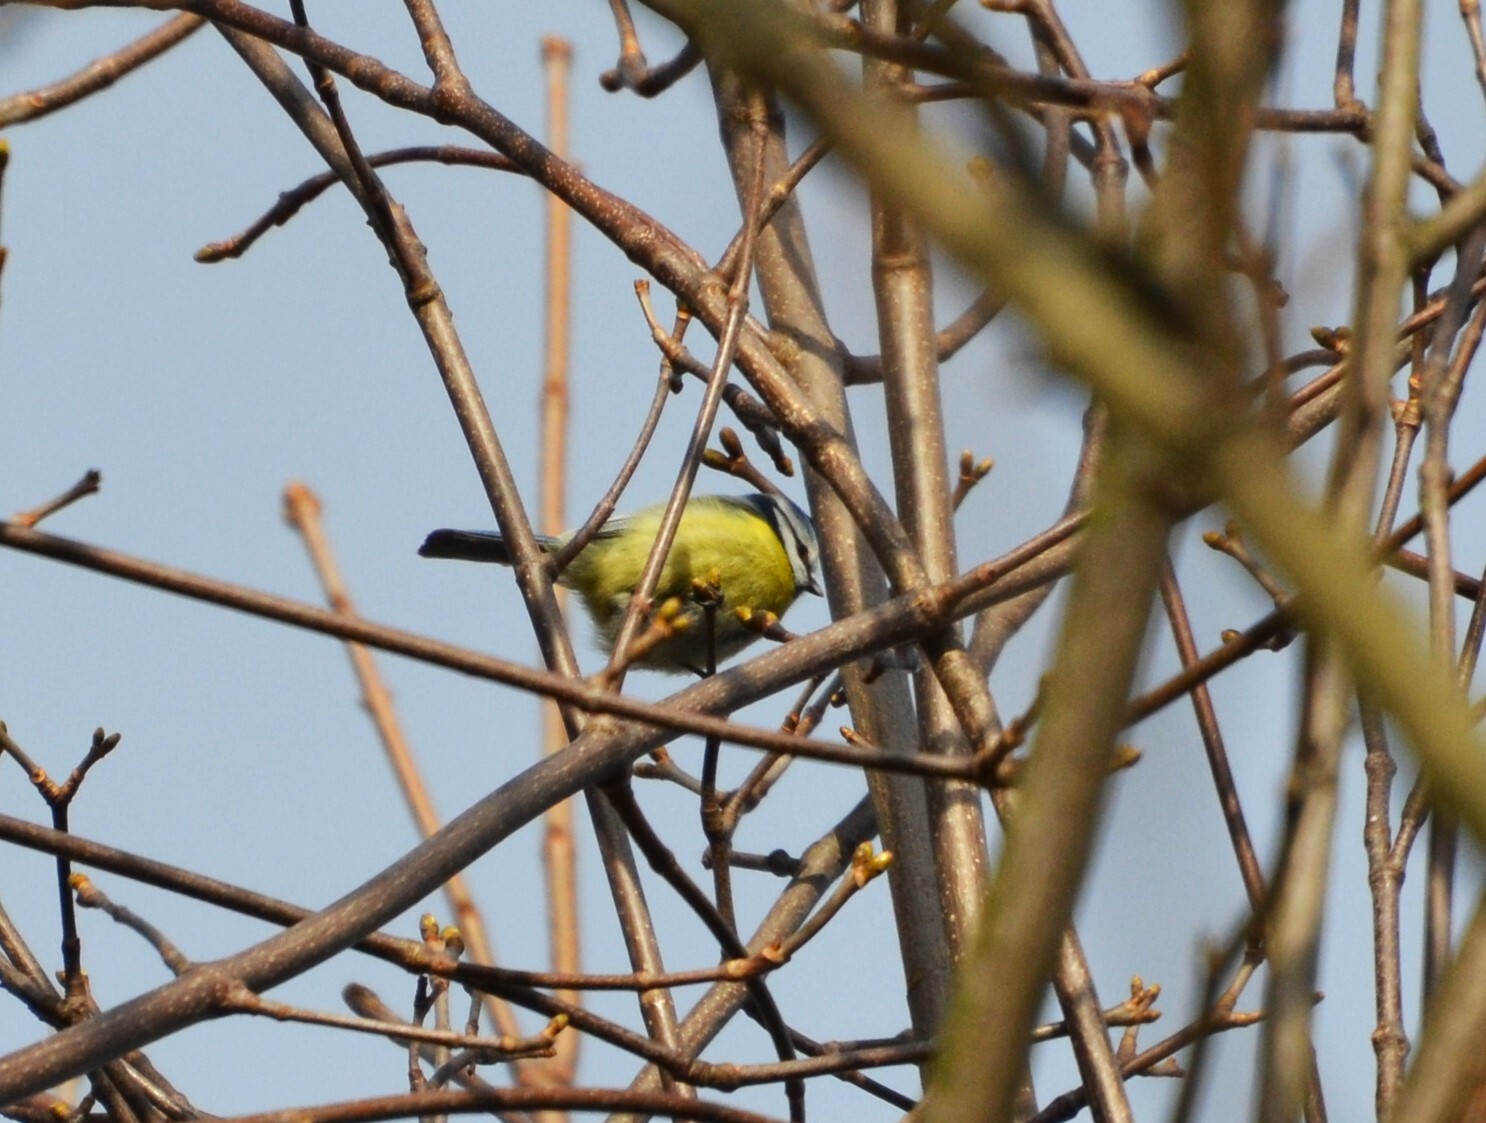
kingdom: Animalia
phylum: Chordata
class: Aves
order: Passeriformes
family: Paridae
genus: Cyanistes
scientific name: Cyanistes caeruleus
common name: Eurasian blue tit
